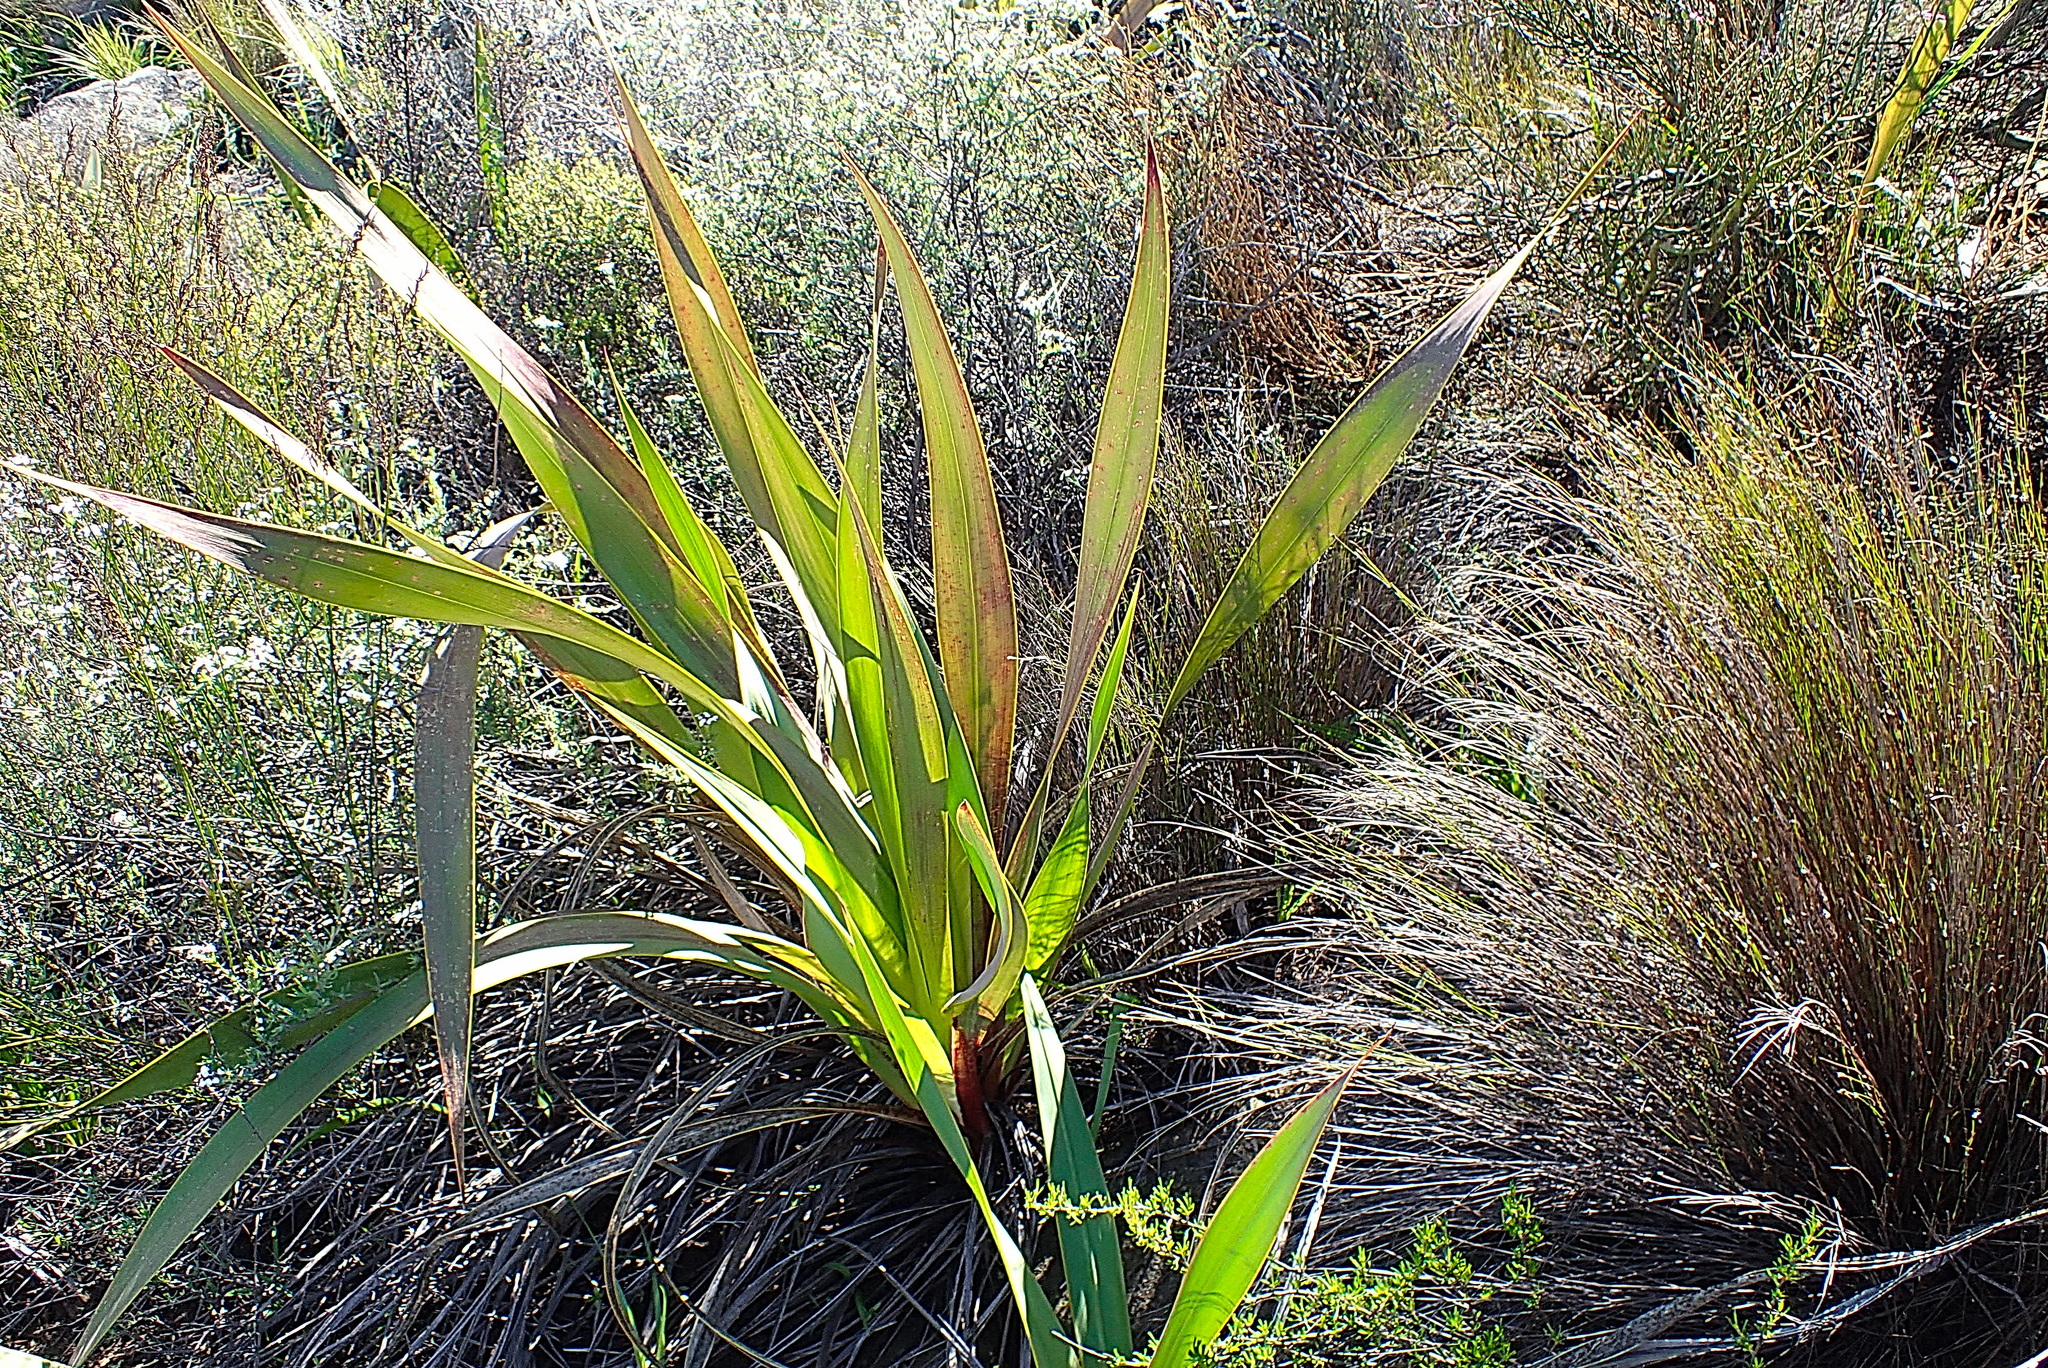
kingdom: Plantae
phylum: Tracheophyta
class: Liliopsida
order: Asparagales
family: Iridaceae
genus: Watsonia
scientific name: Watsonia vanderspuyae
